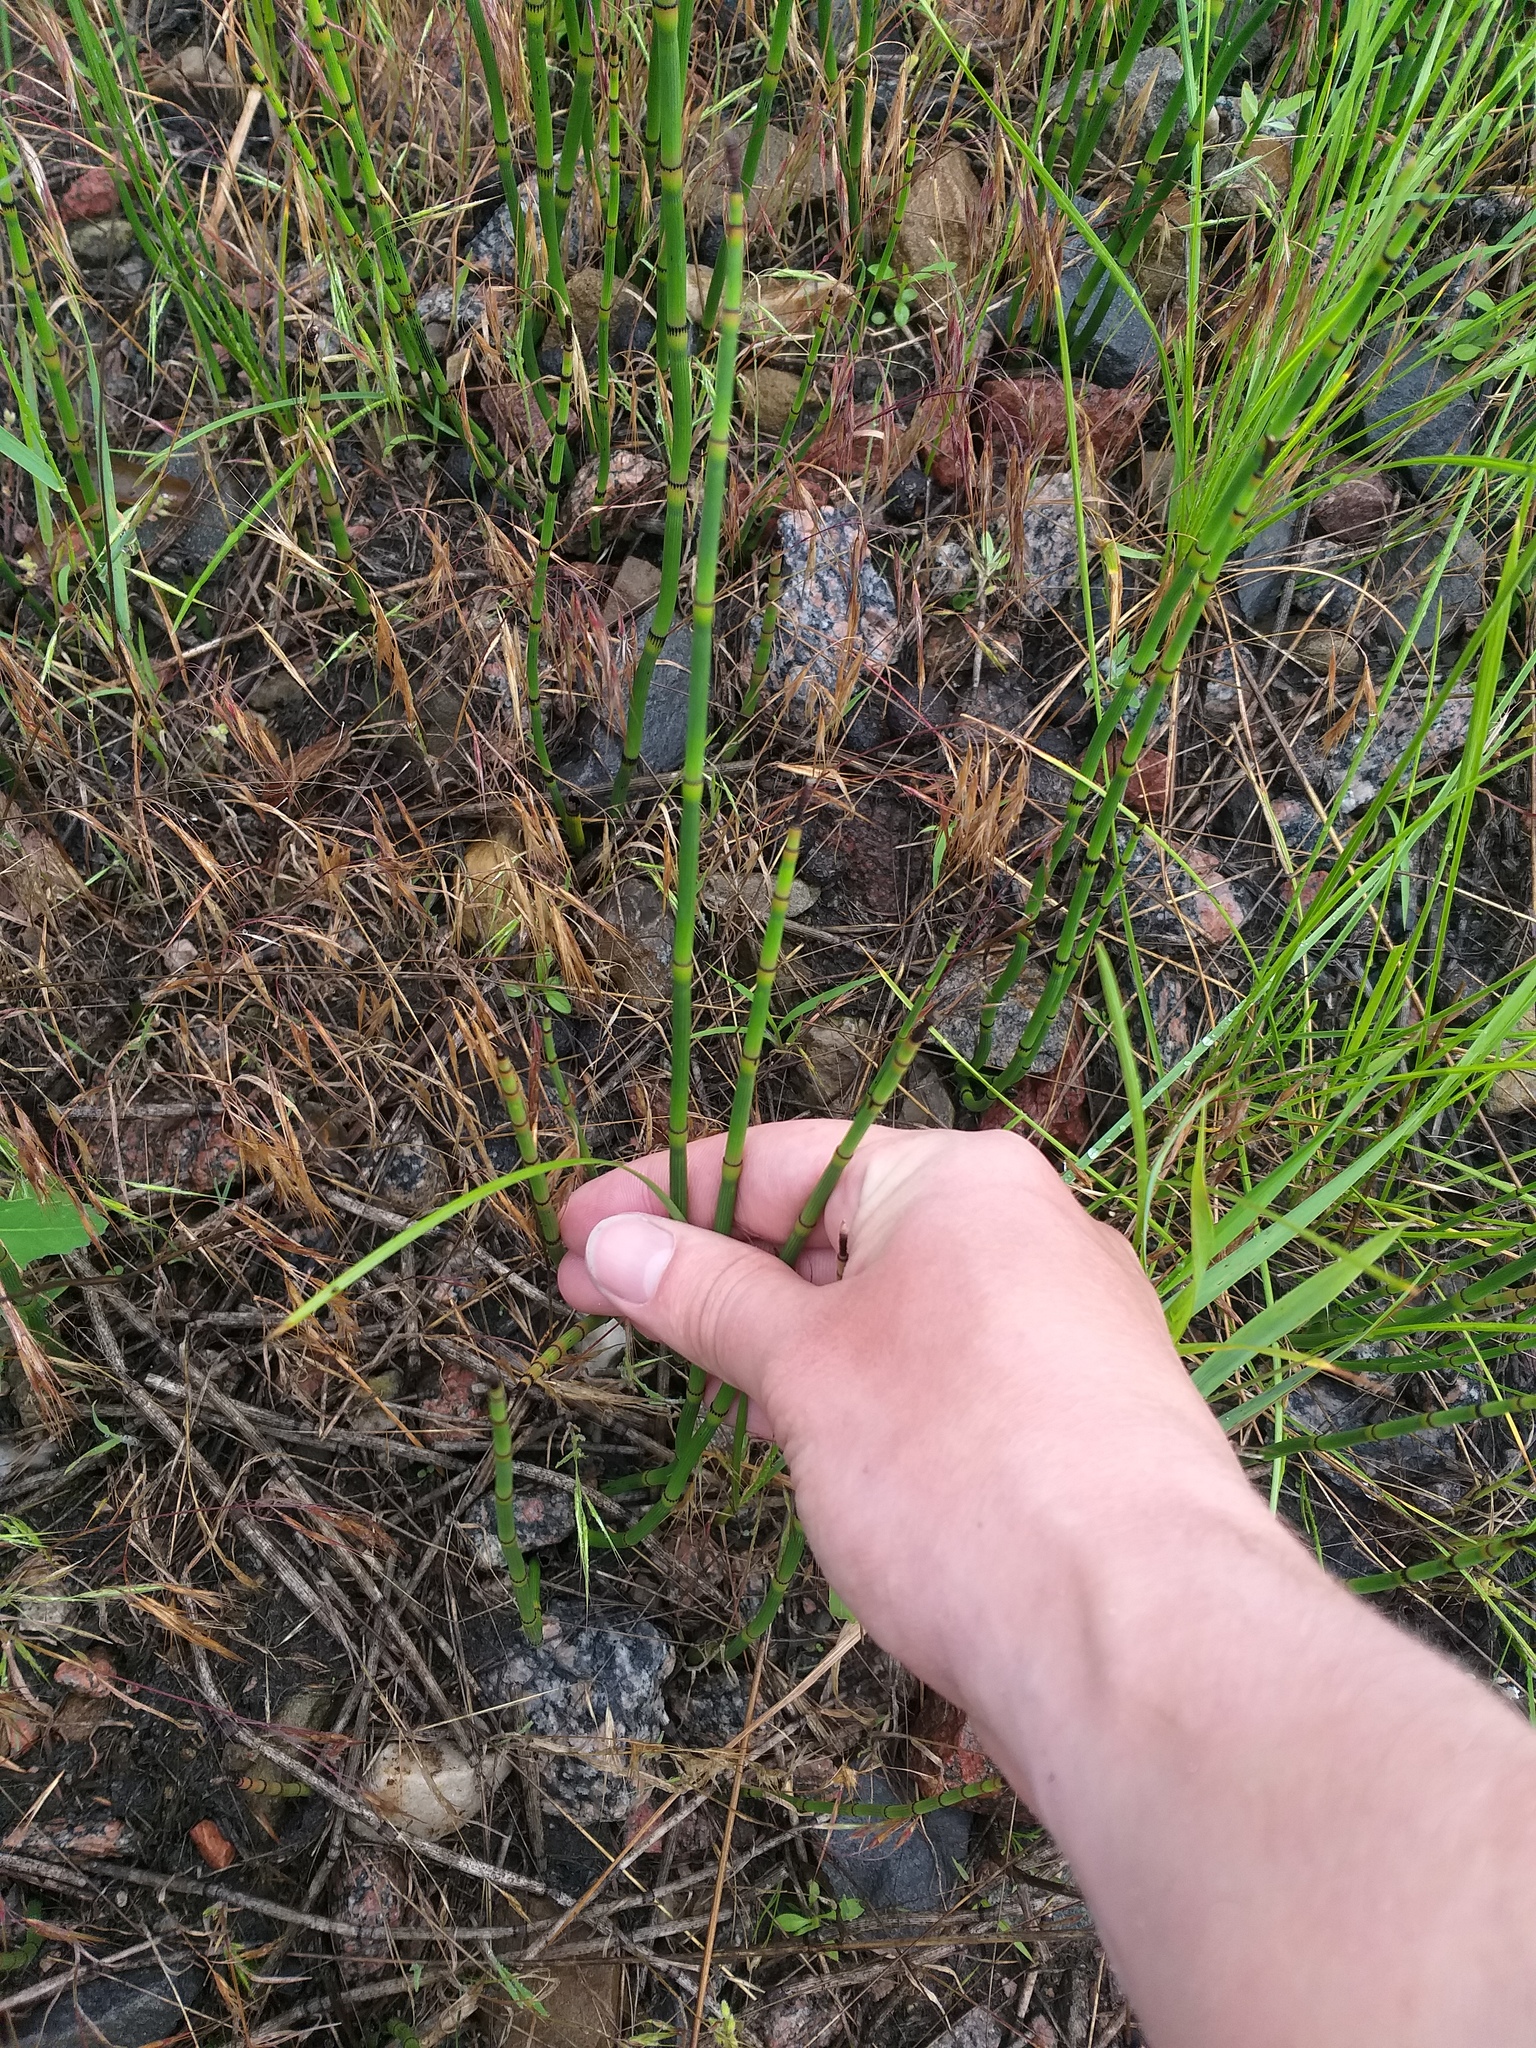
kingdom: Plantae
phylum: Tracheophyta
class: Polypodiopsida
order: Equisetales
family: Equisetaceae
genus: Equisetum
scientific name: Equisetum hyemale
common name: Rough horsetail
